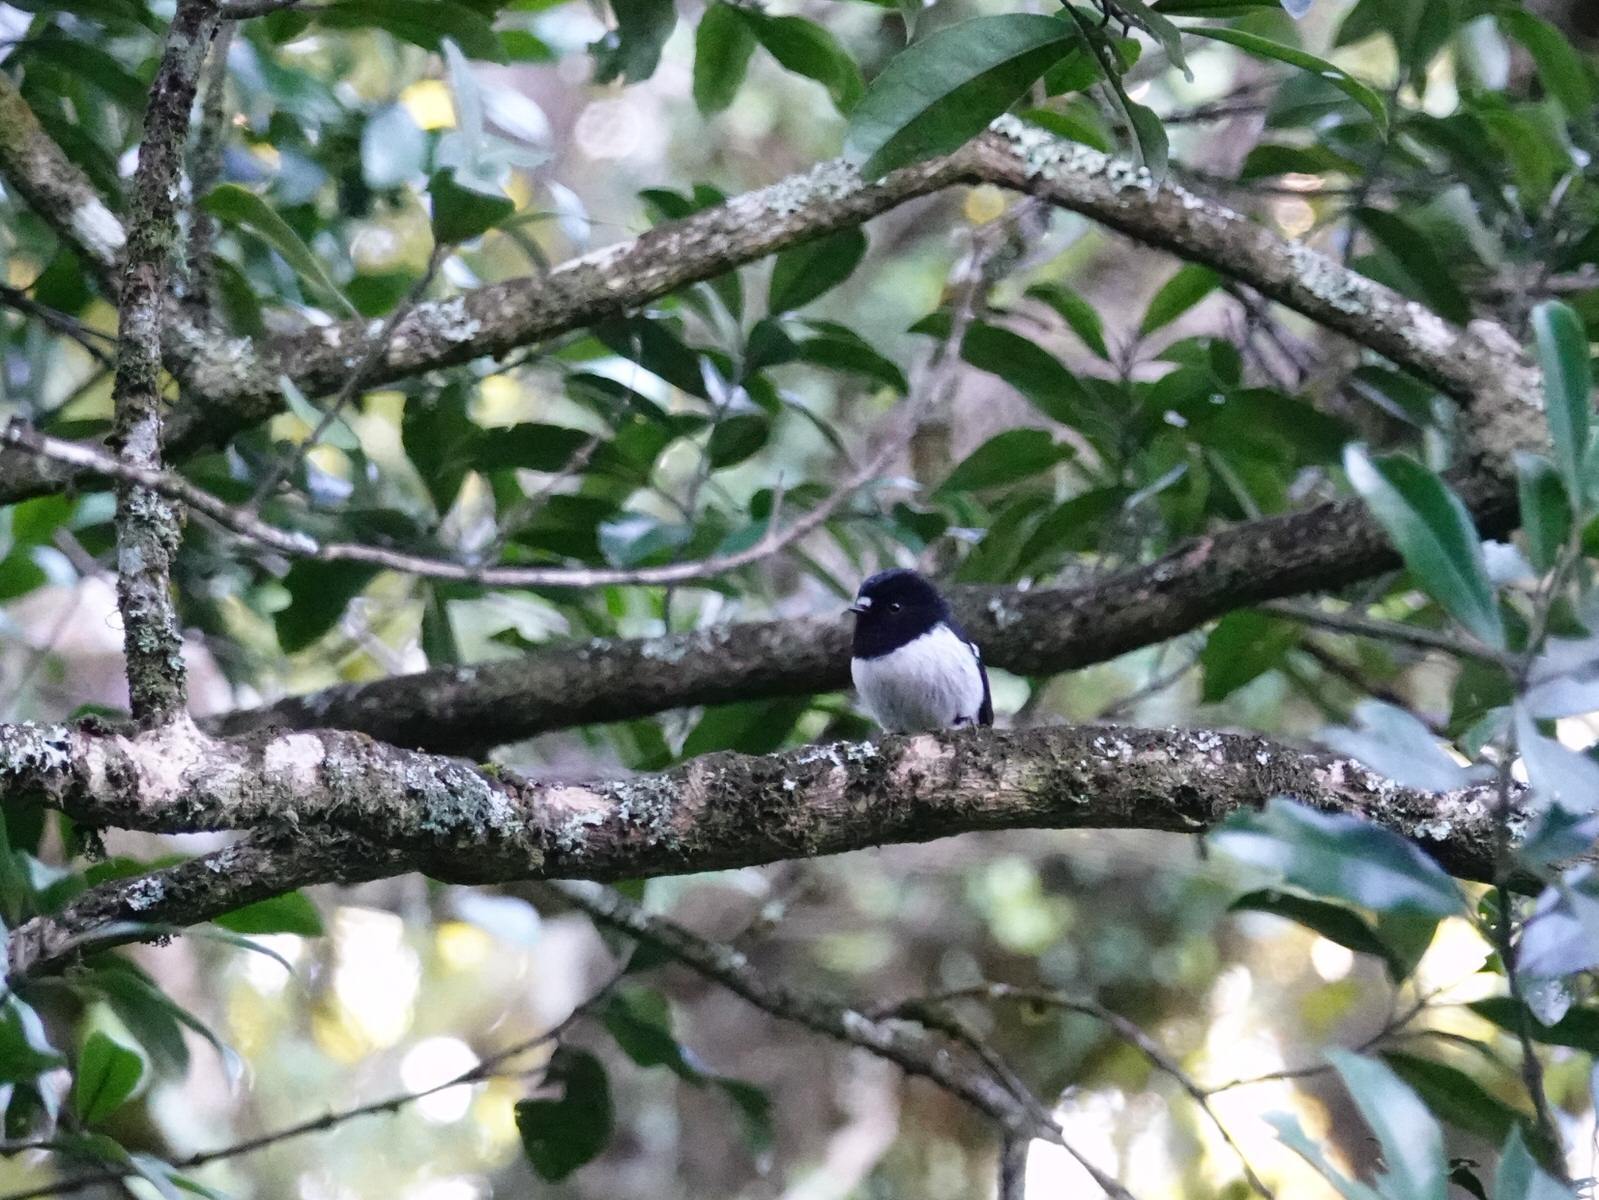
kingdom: Animalia
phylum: Chordata
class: Aves
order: Passeriformes
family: Petroicidae
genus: Petroica
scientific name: Petroica macrocephala
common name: Tomtit
